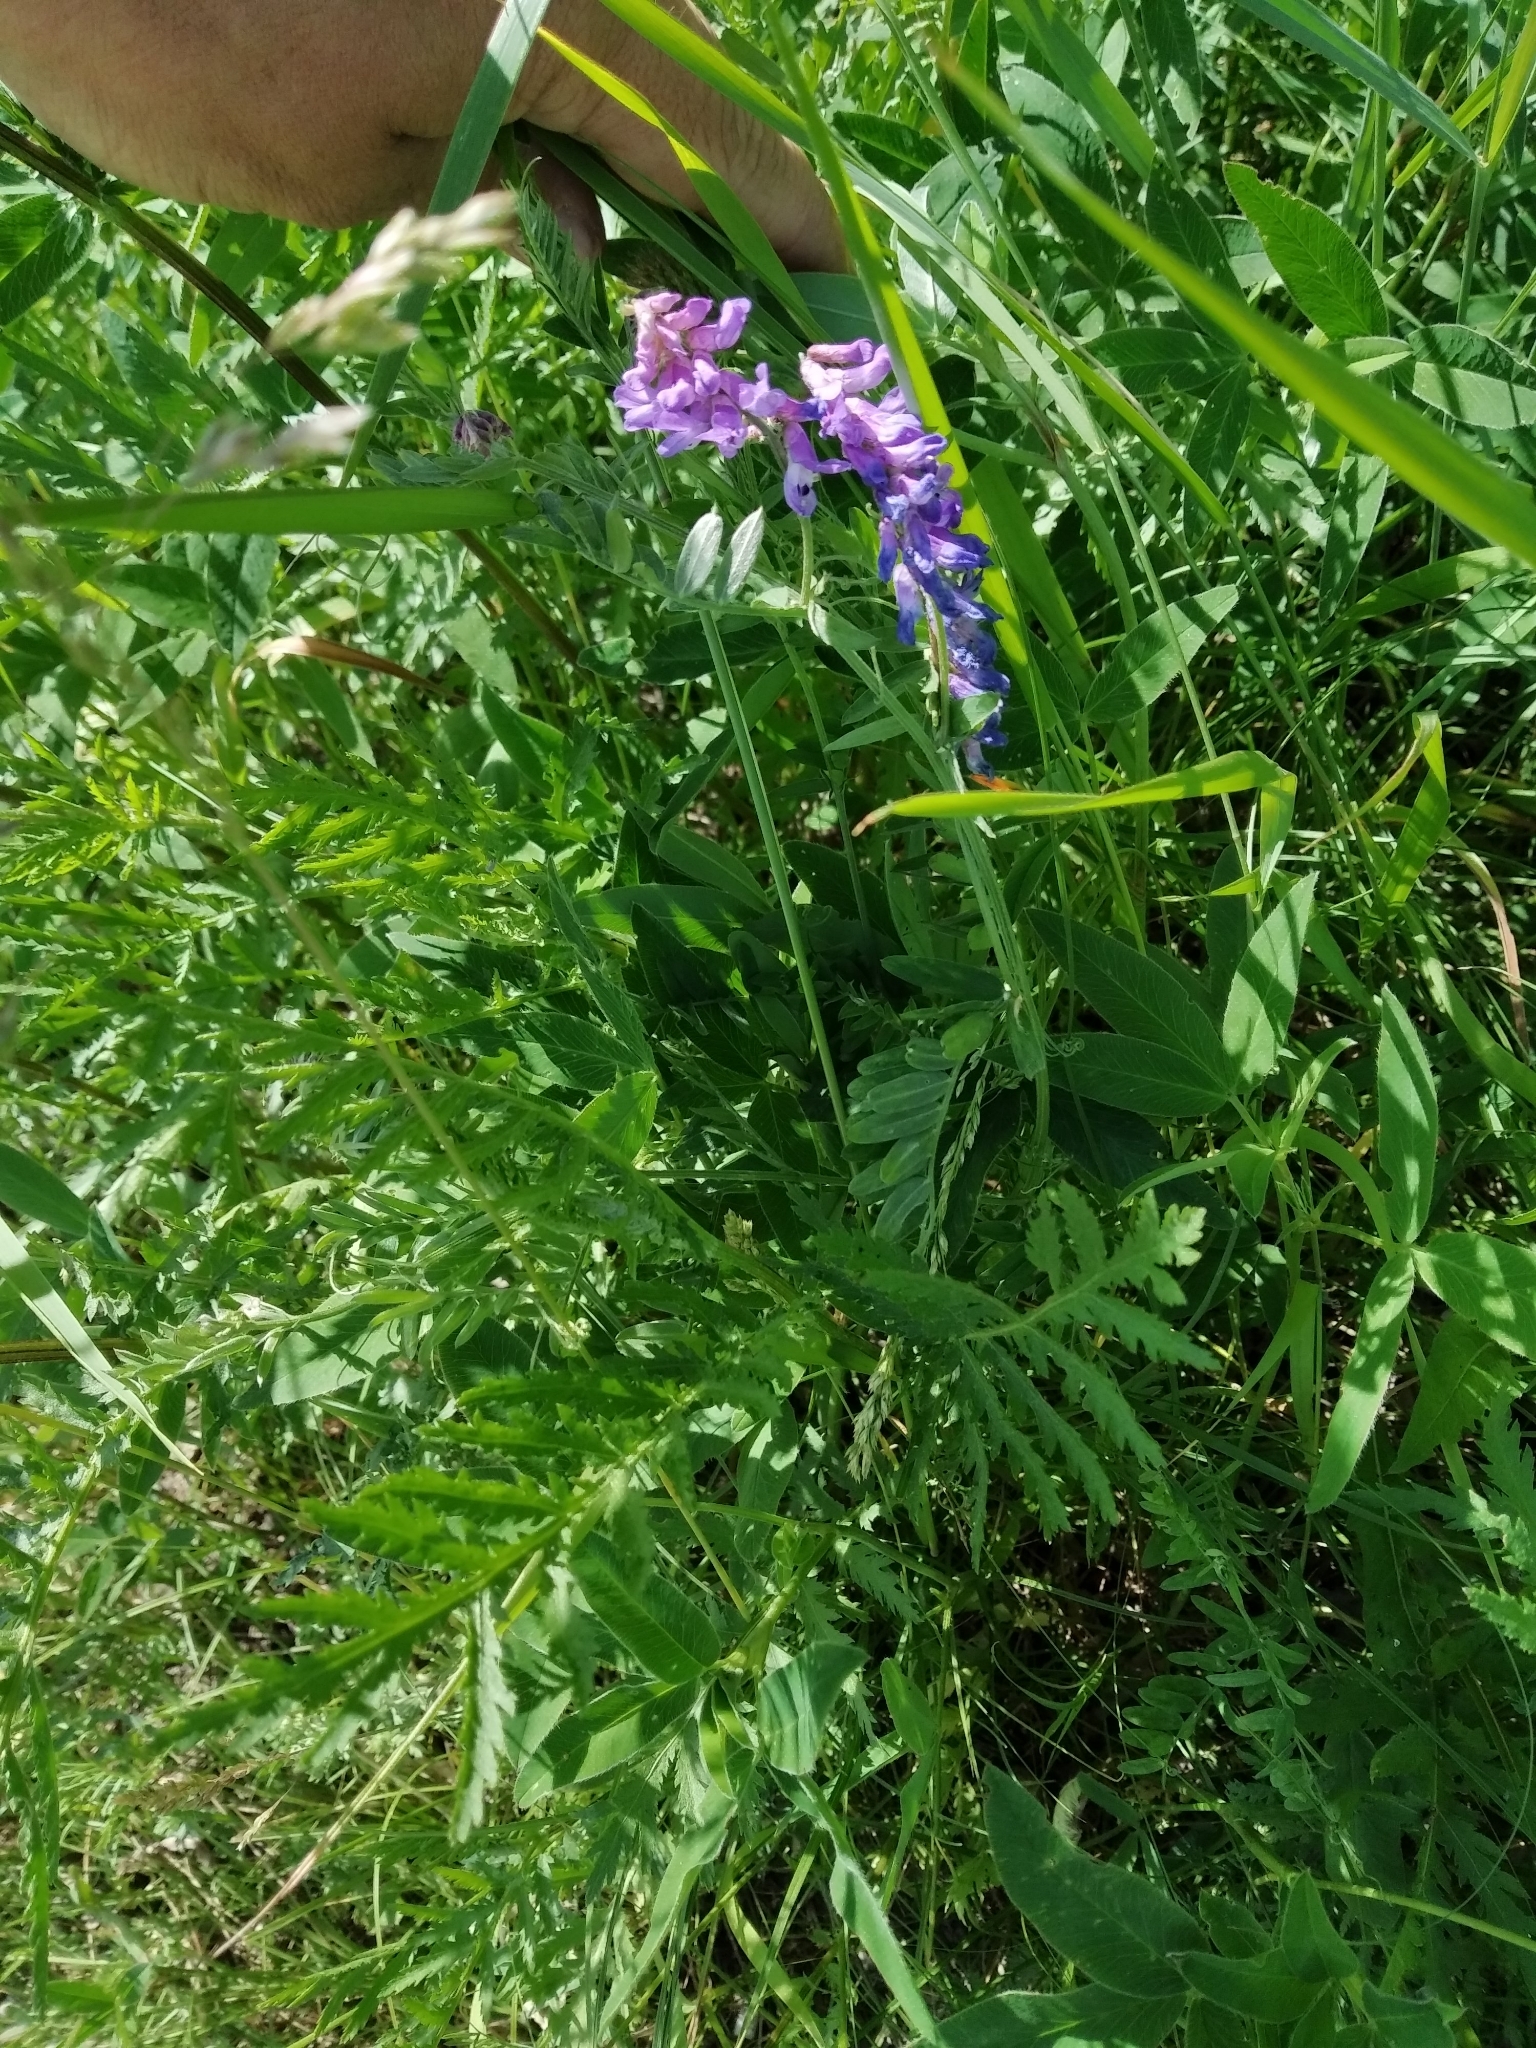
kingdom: Plantae
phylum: Tracheophyta
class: Magnoliopsida
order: Fabales
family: Fabaceae
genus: Vicia
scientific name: Vicia cracca
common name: Bird vetch
